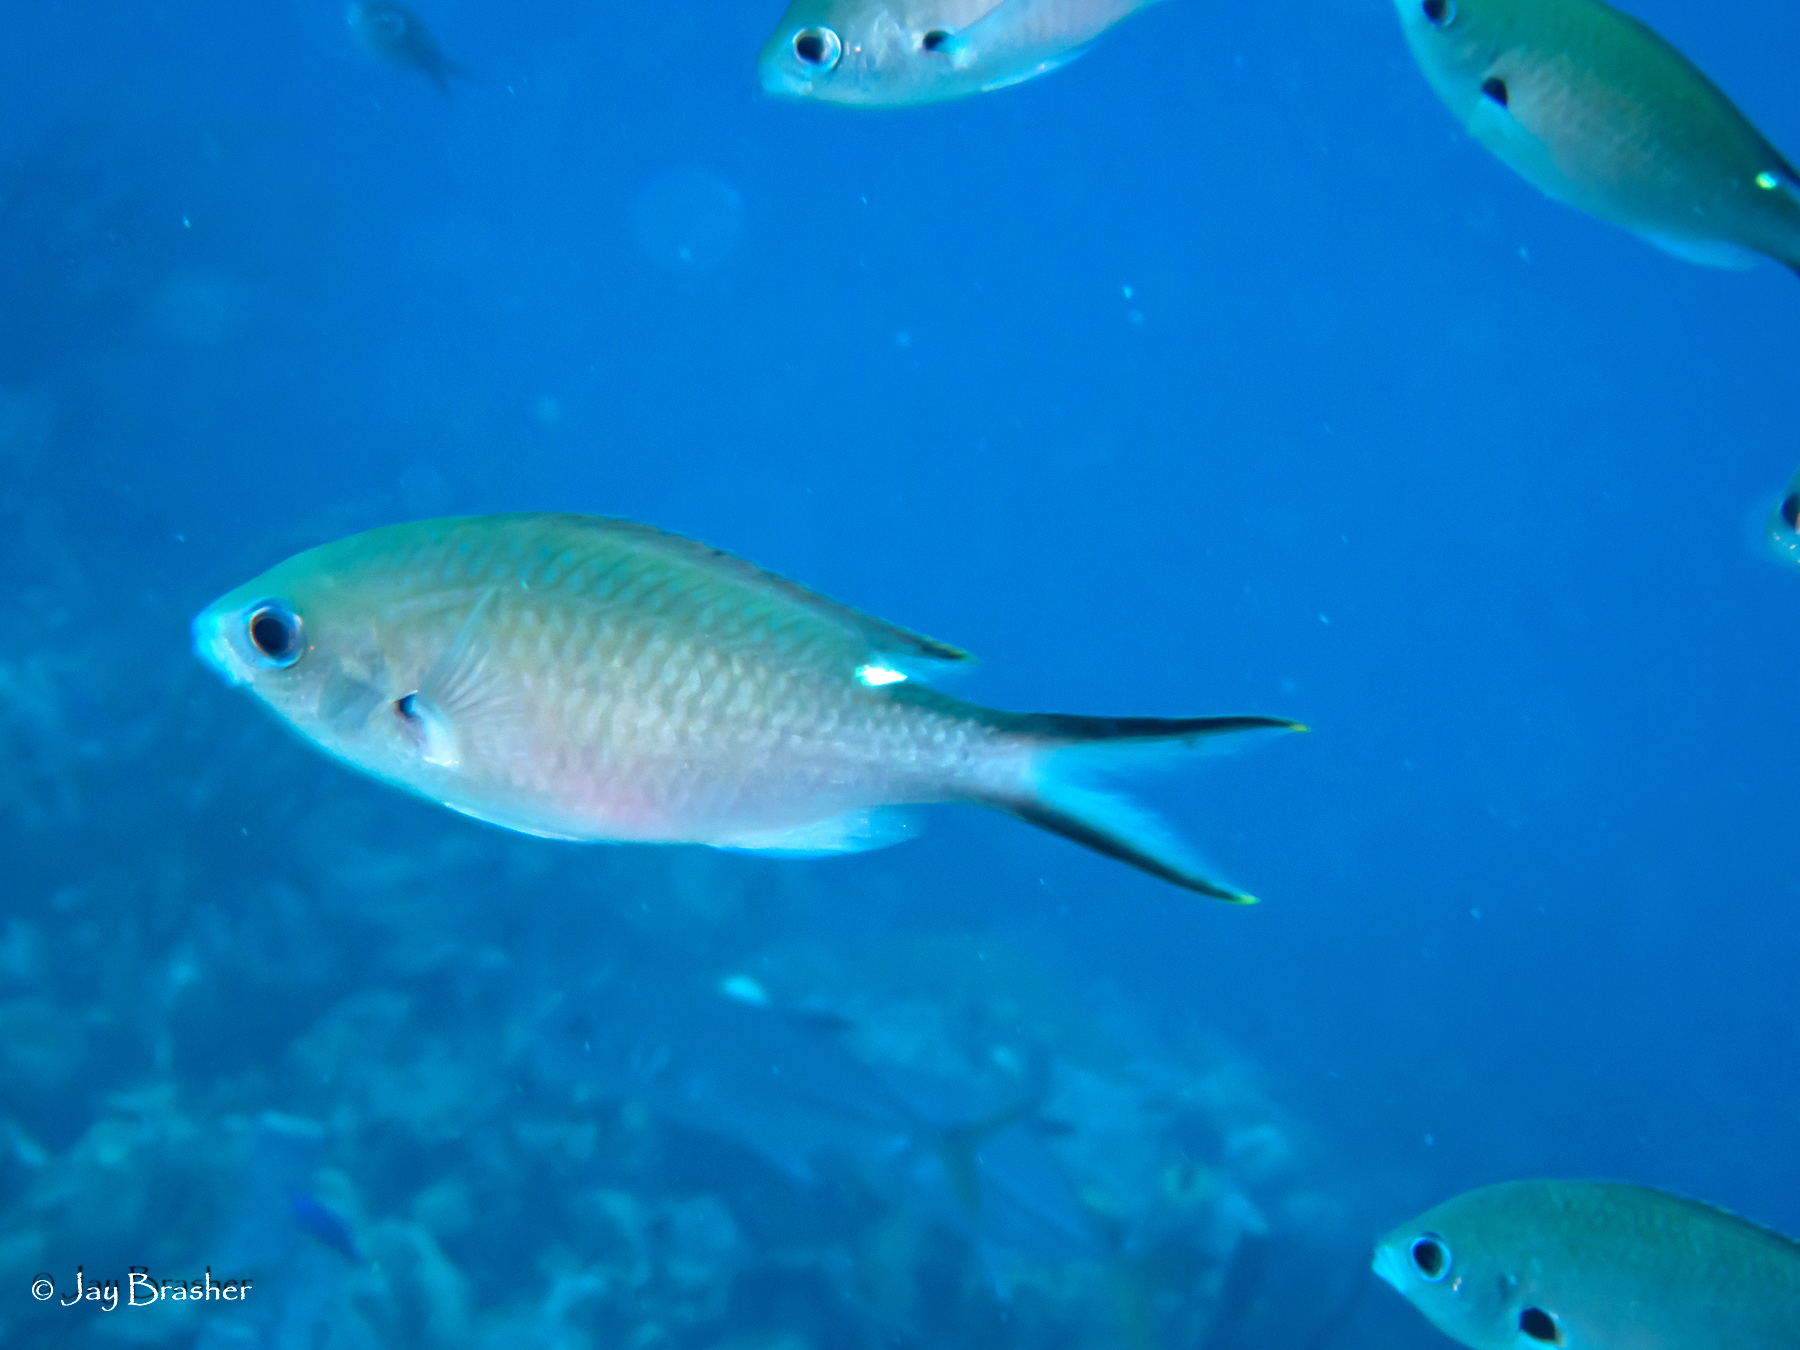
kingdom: Animalia
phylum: Chordata
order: Perciformes
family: Pomacentridae
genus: Chromis
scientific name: Chromis multilineata
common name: Brown chromis
